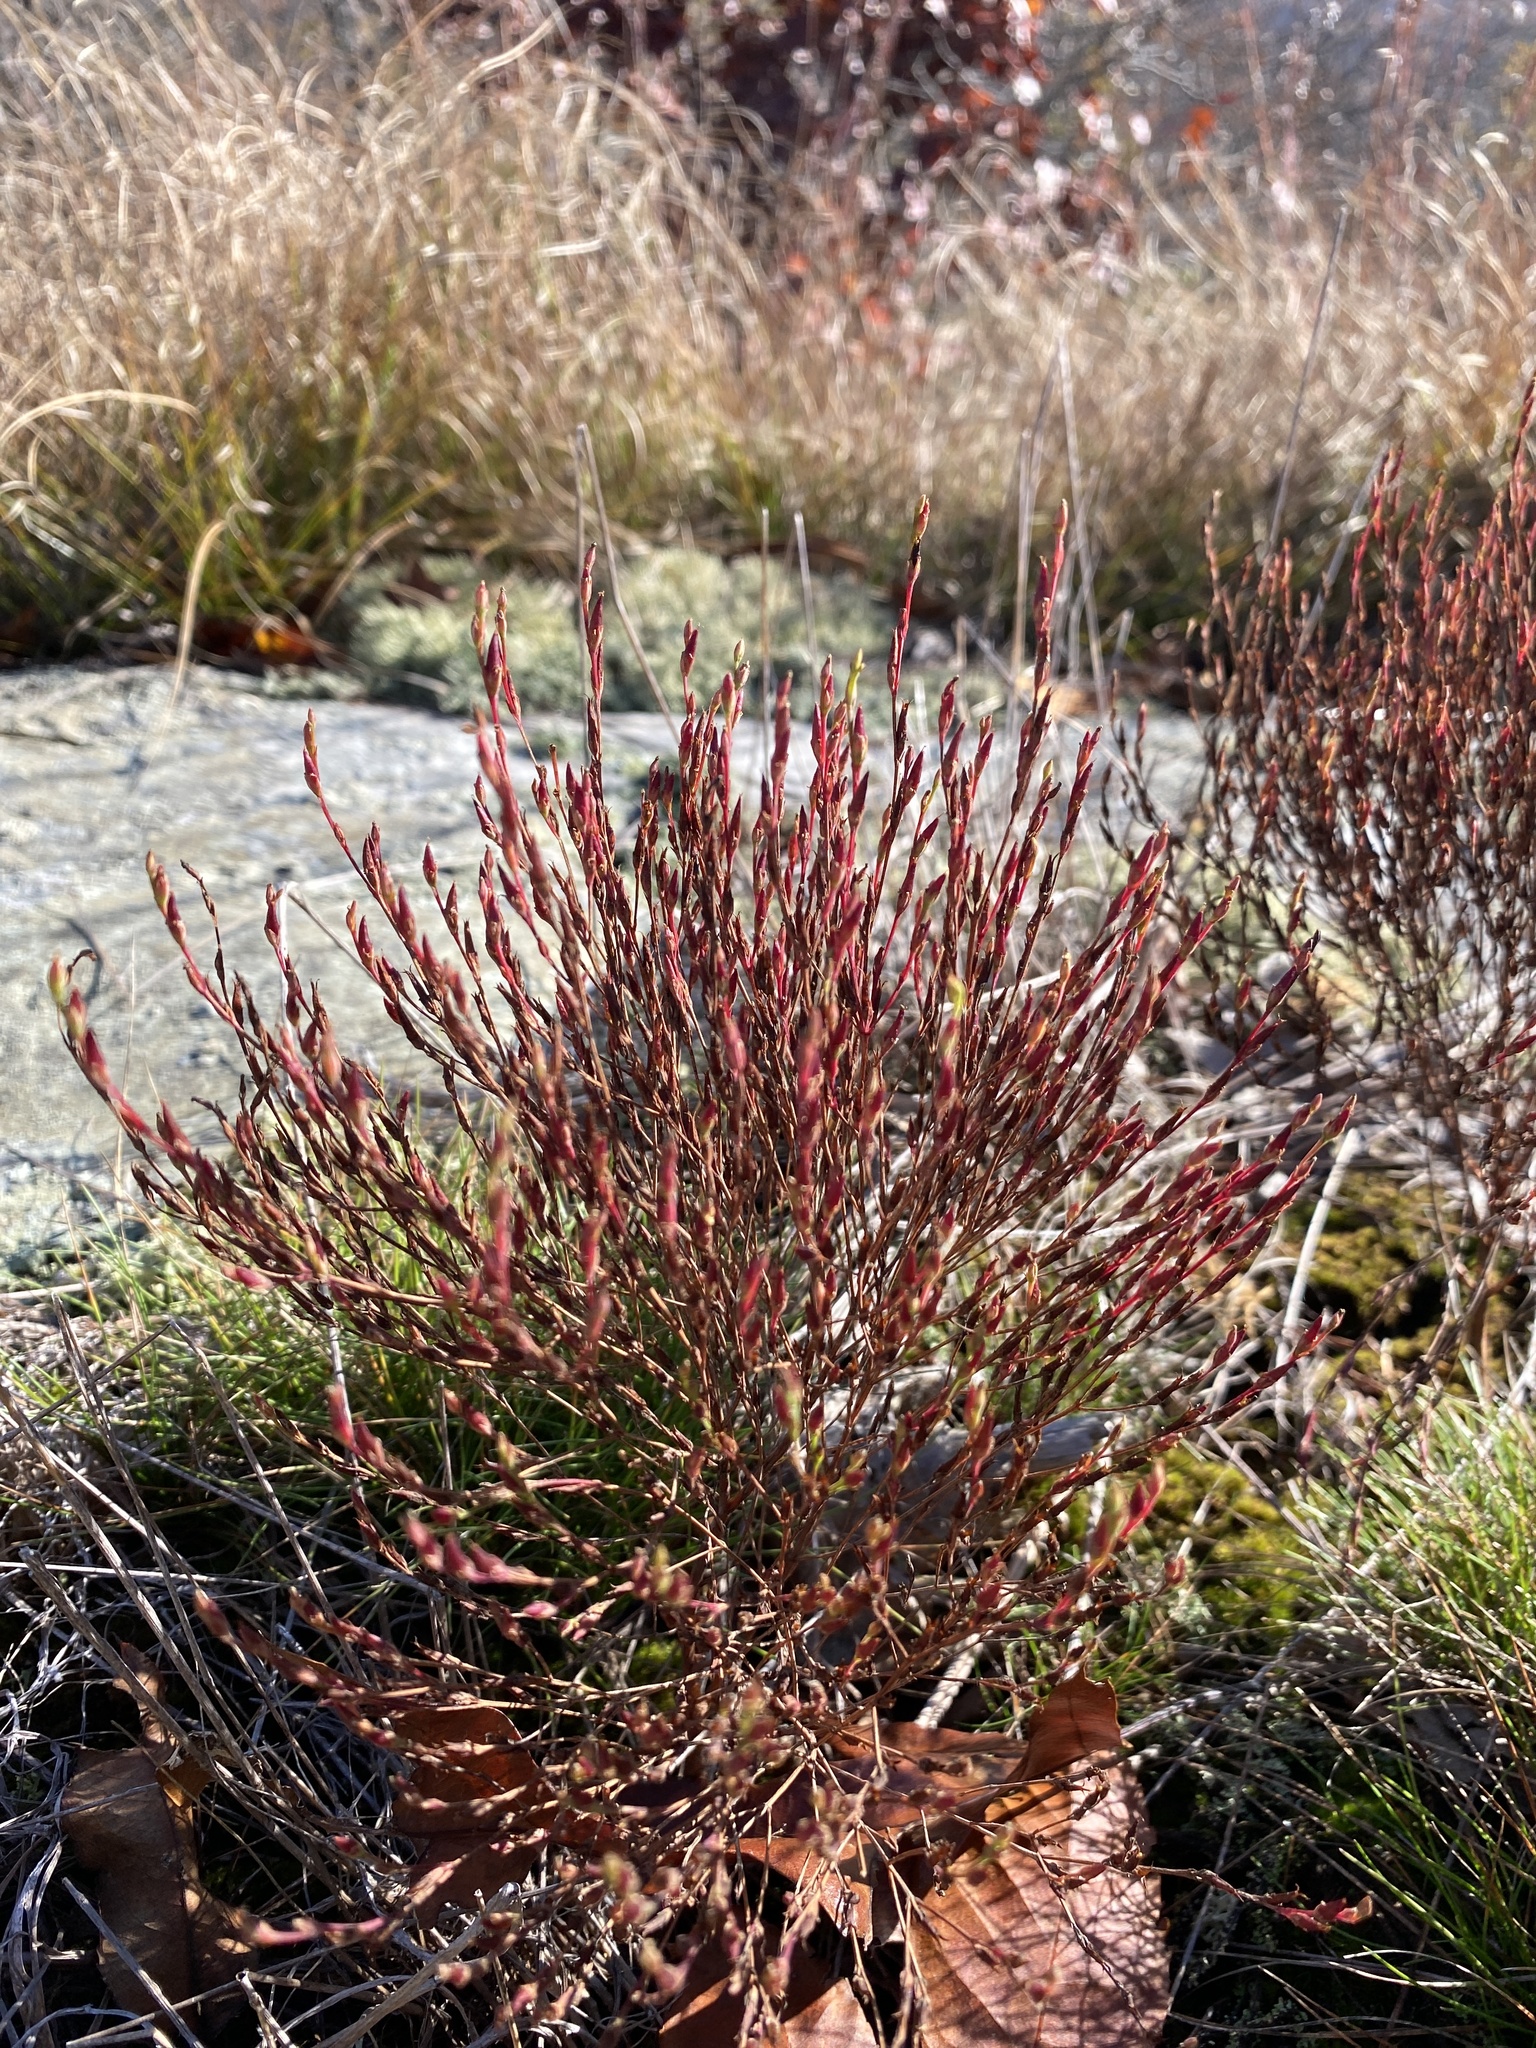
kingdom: Plantae
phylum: Tracheophyta
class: Magnoliopsida
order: Malpighiales
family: Hypericaceae
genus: Hypericum
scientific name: Hypericum gentianoides
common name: Gentian-leaved st. john's-wort
